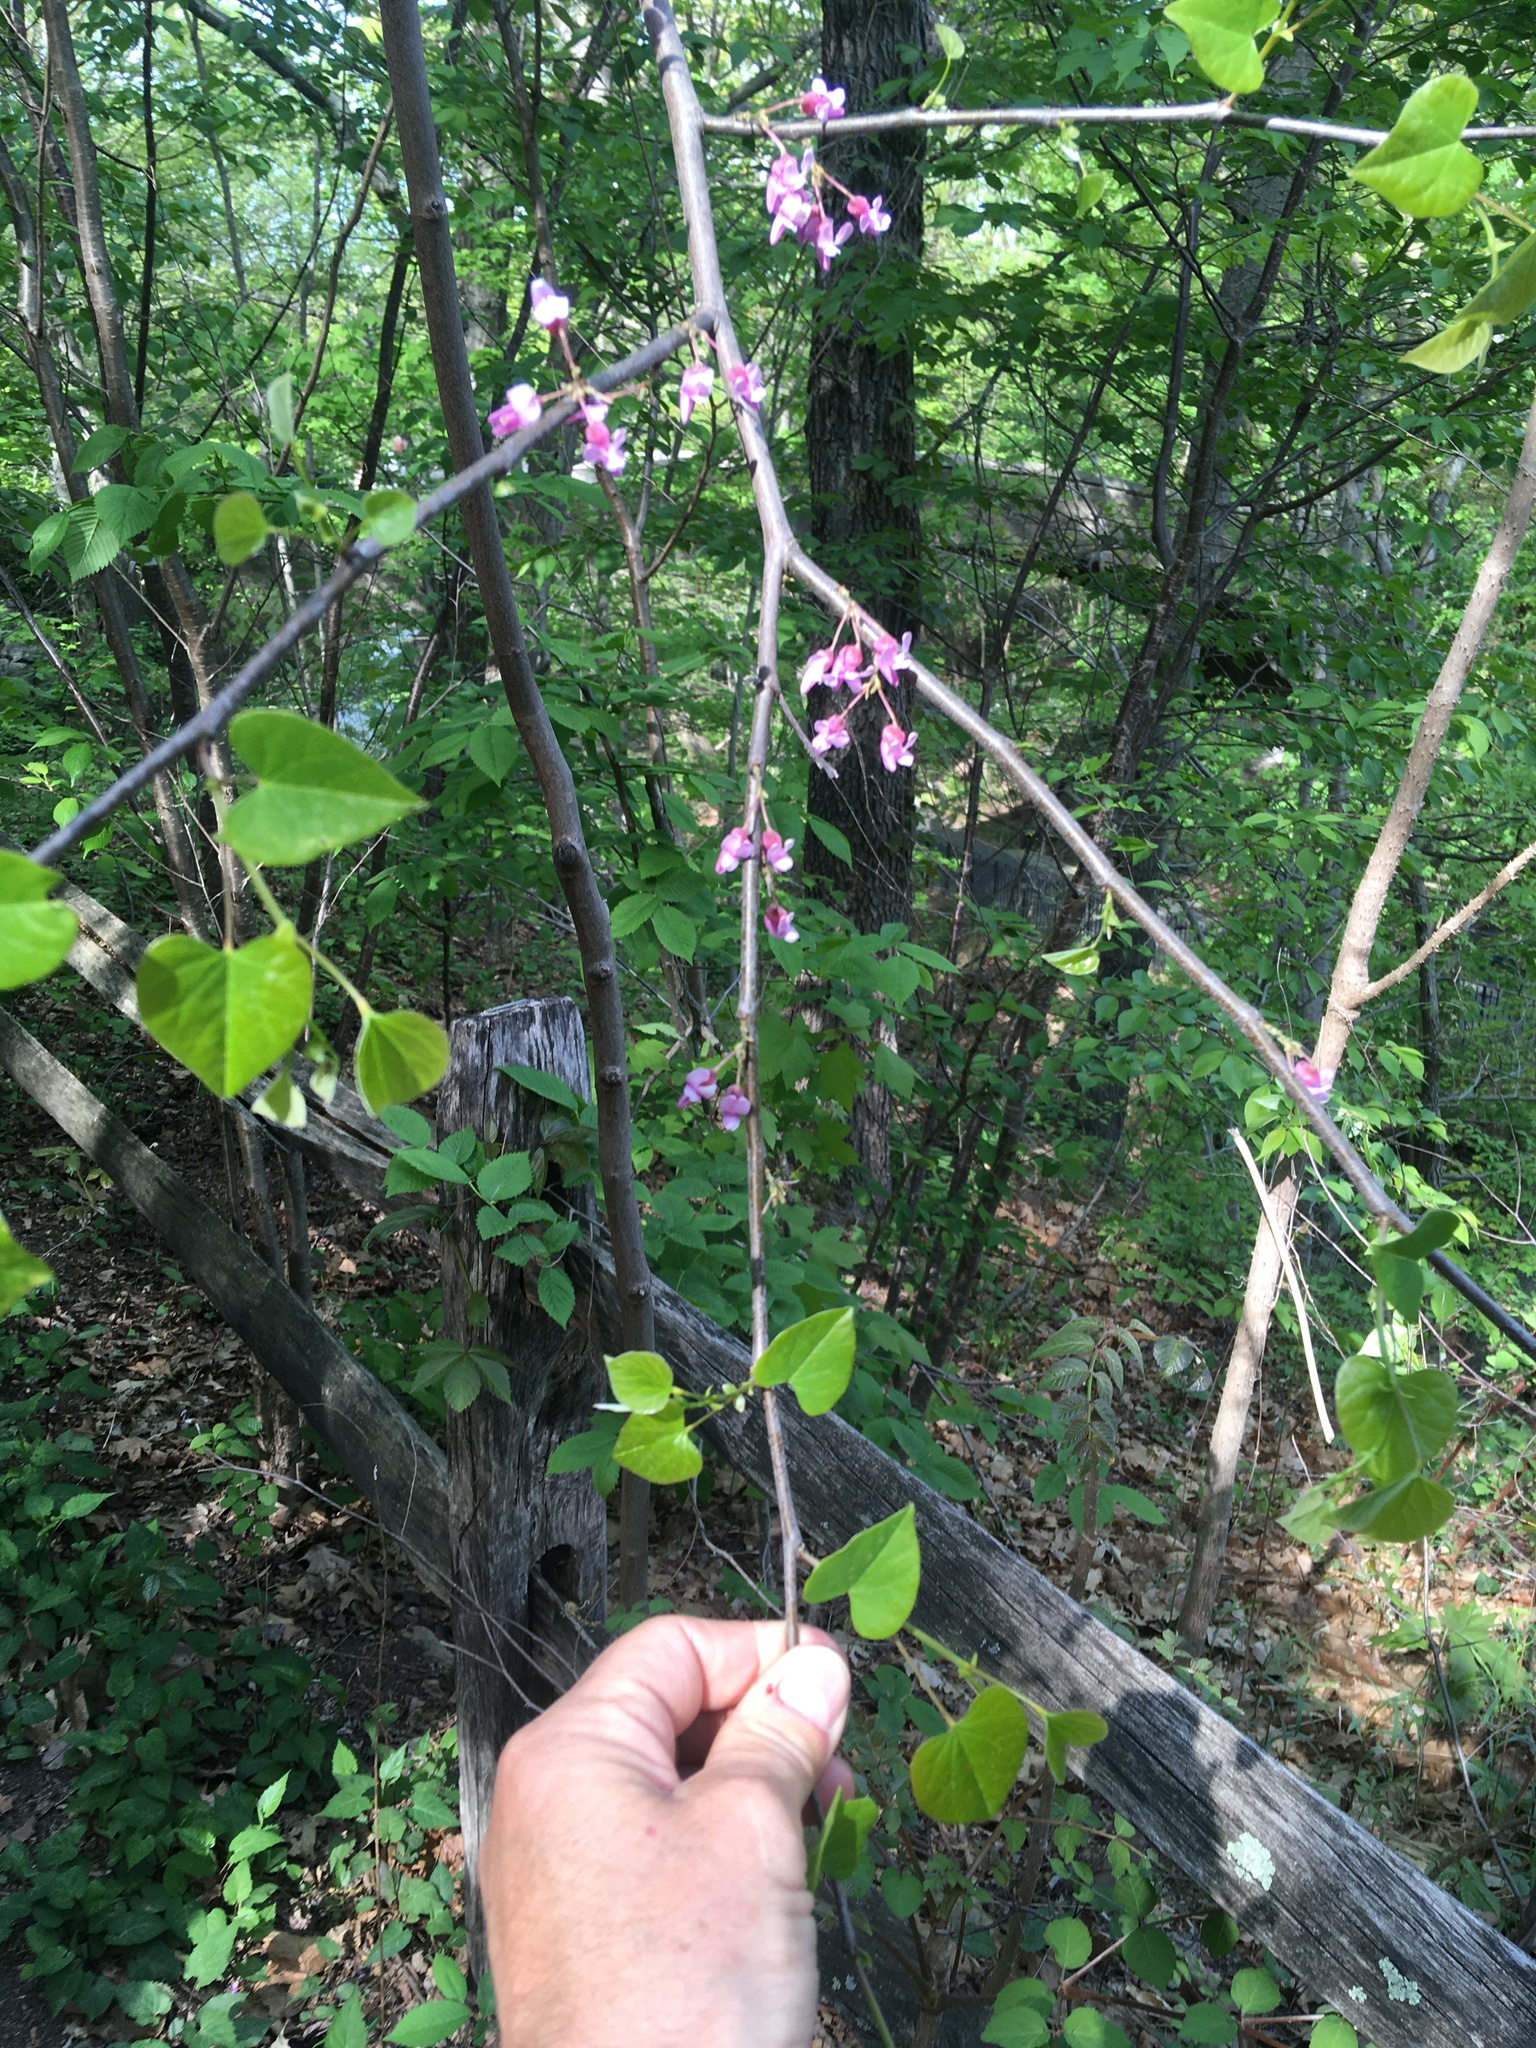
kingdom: Plantae
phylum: Tracheophyta
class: Magnoliopsida
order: Fabales
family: Fabaceae
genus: Cercis
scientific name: Cercis canadensis
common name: Eastern redbud
